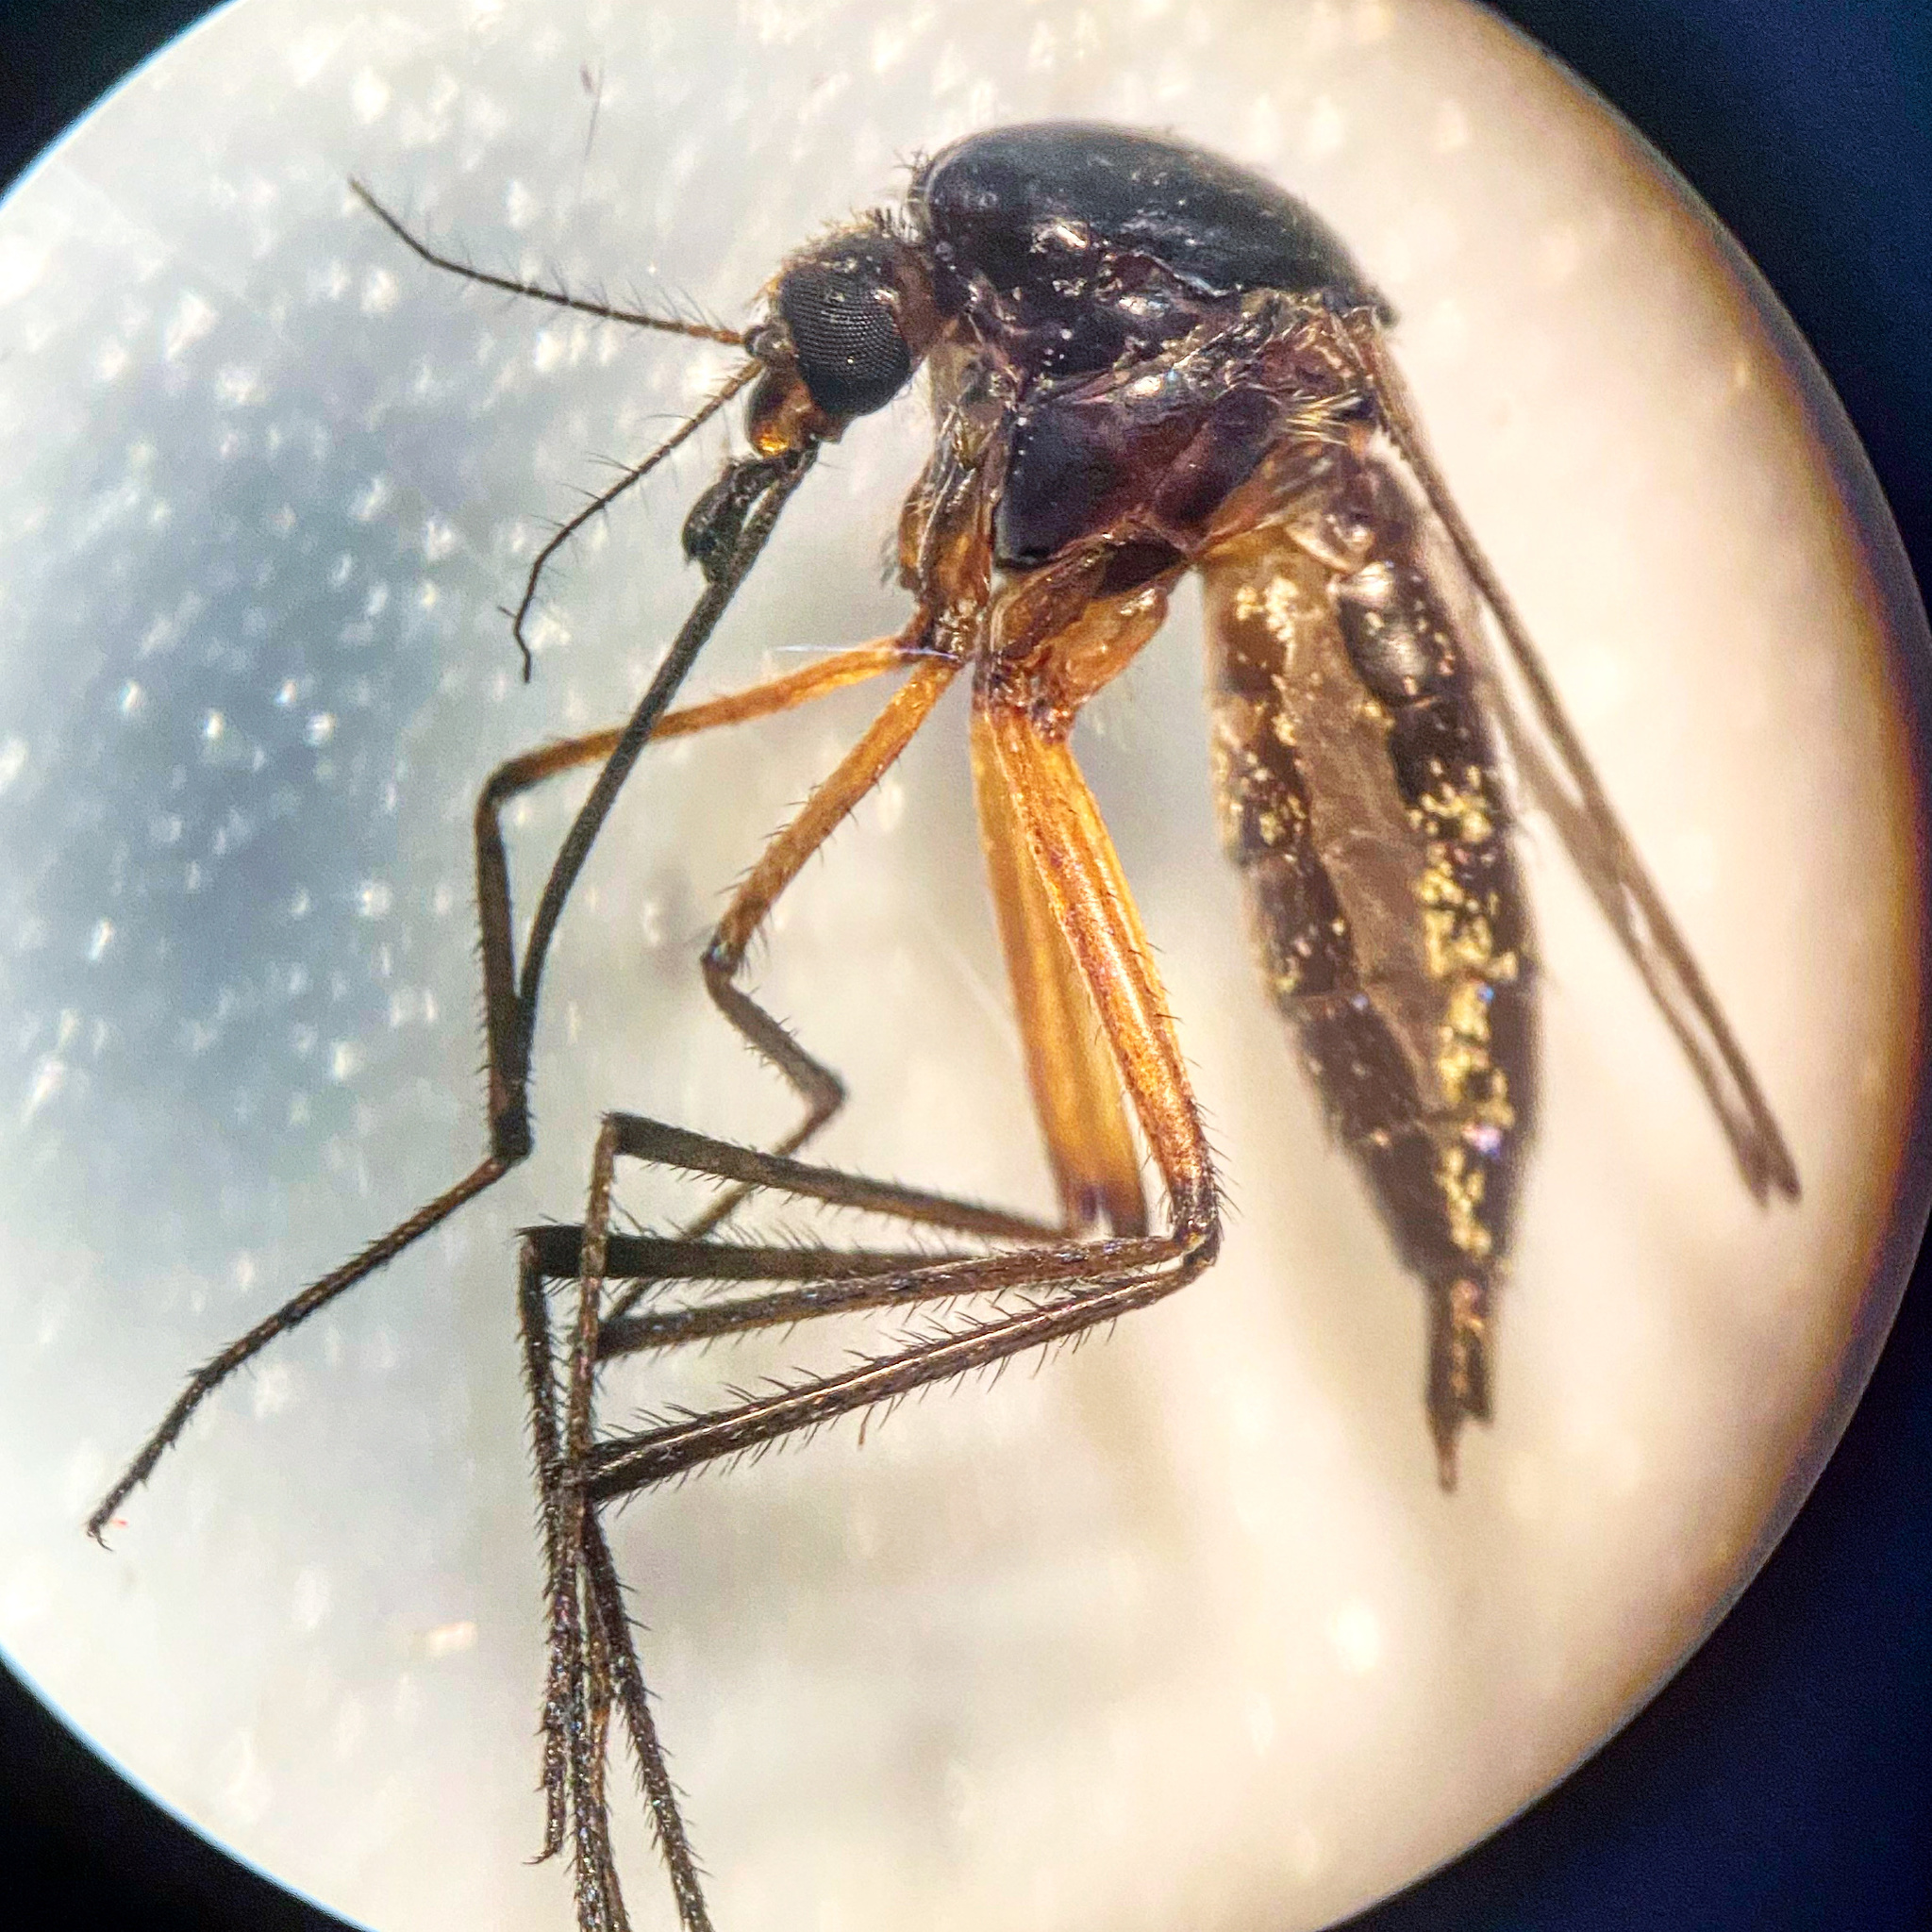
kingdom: Animalia
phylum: Arthropoda
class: Insecta
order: Diptera
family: Culicidae
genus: Psorophora
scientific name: Psorophora cyanescens
